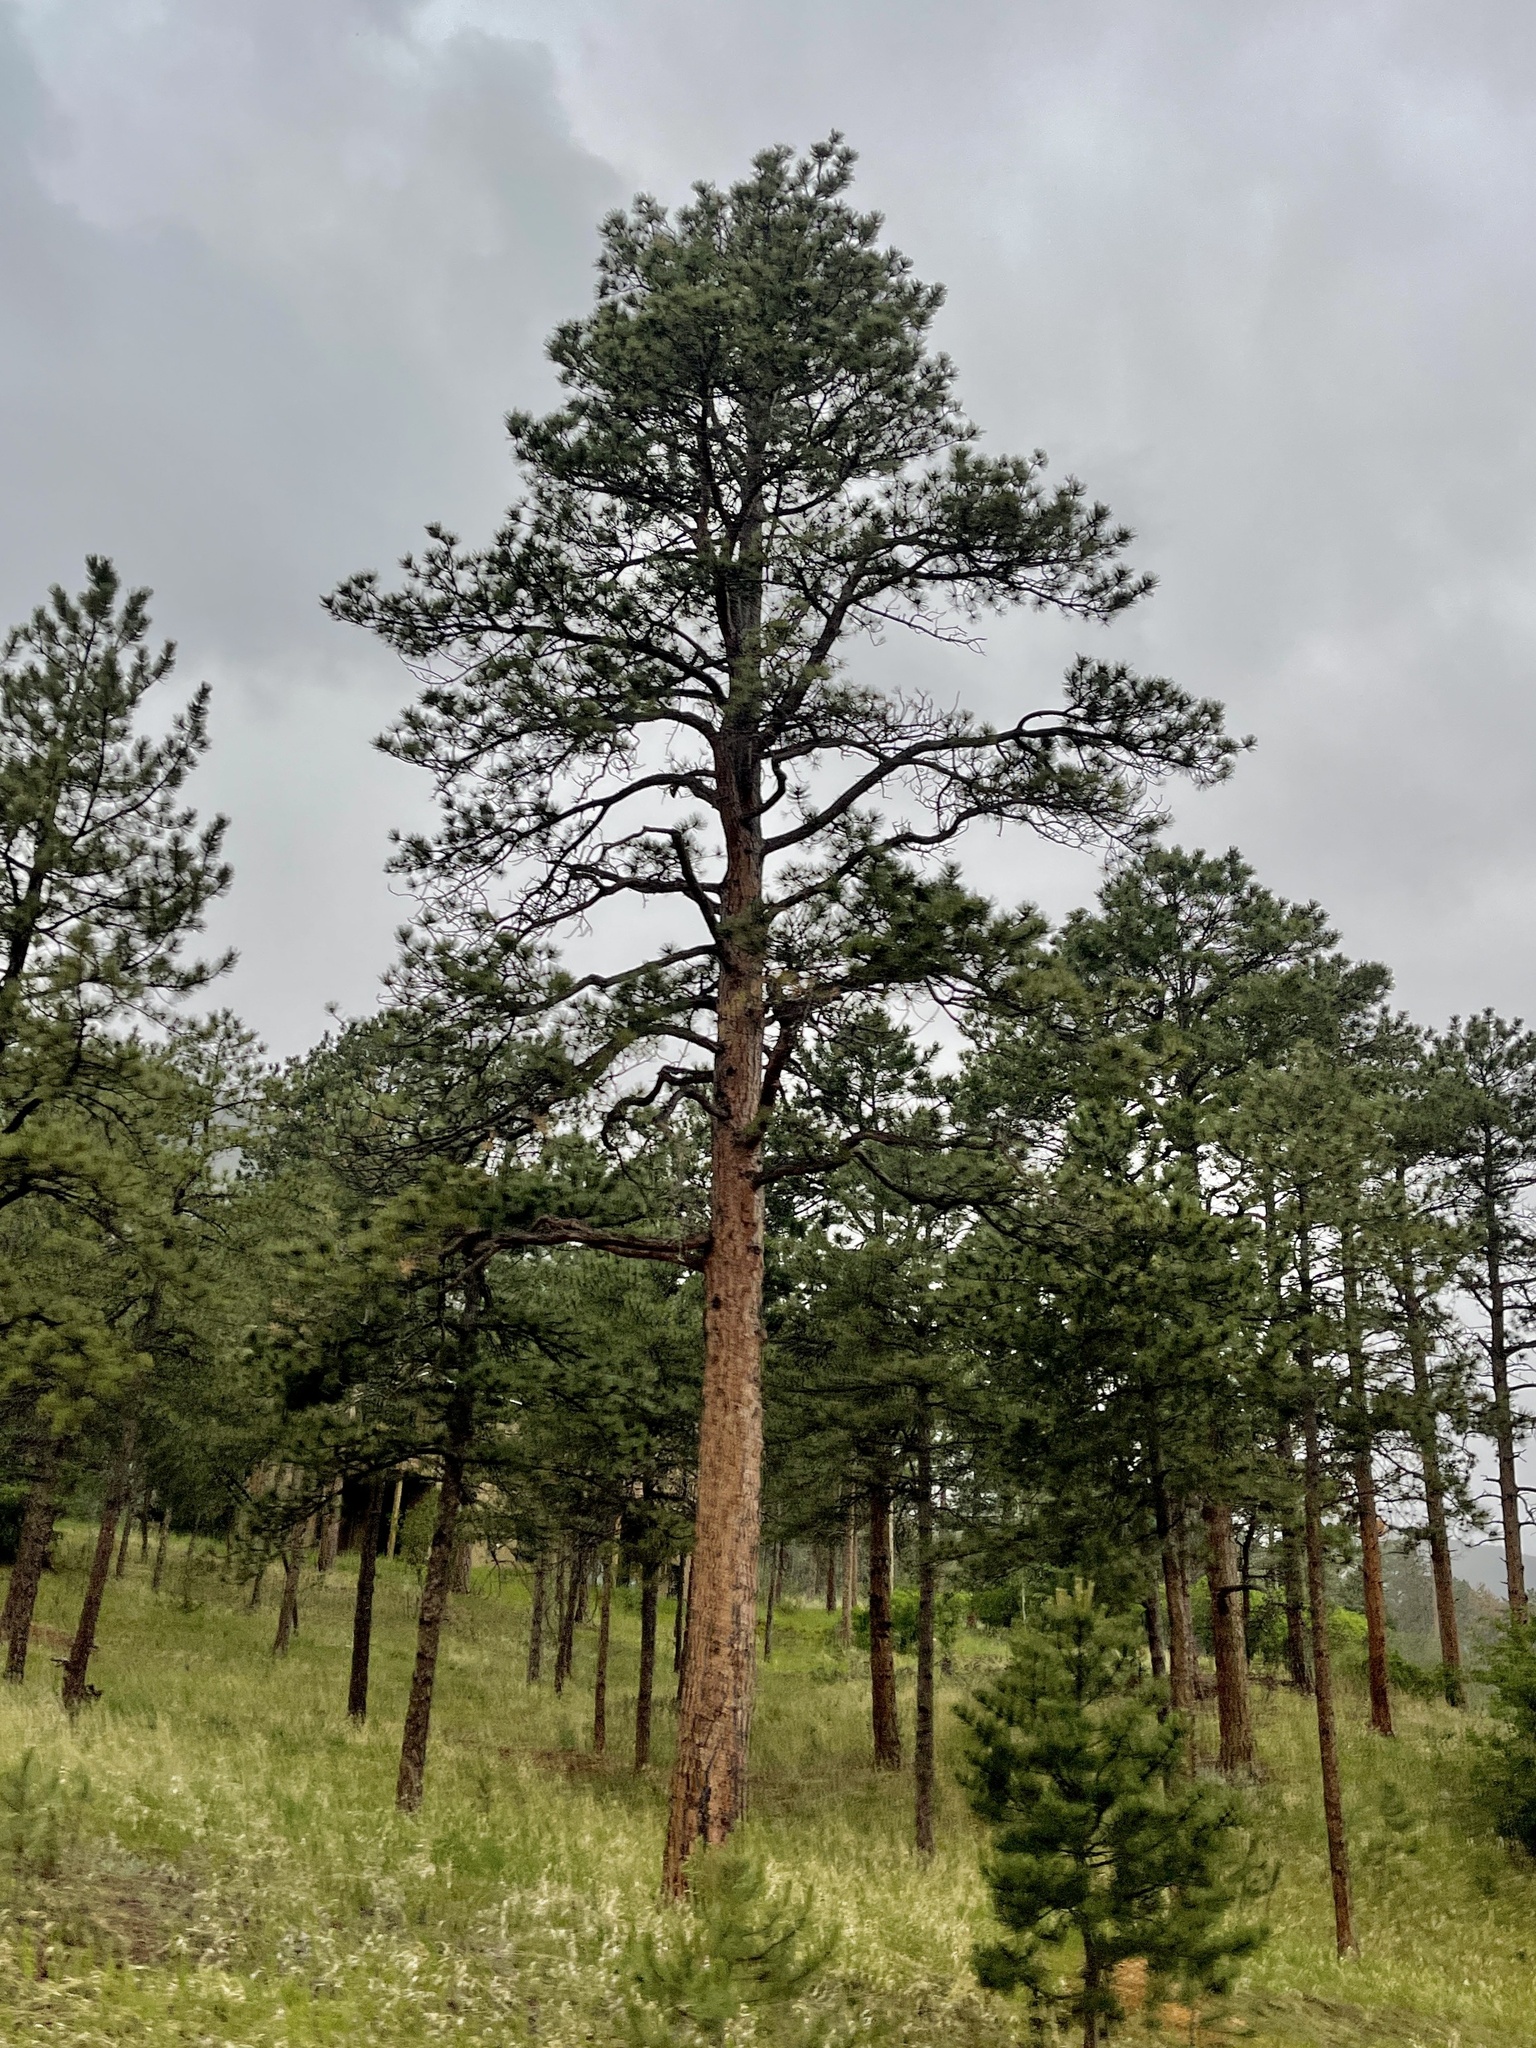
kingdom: Plantae
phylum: Tracheophyta
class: Pinopsida
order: Pinales
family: Pinaceae
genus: Pinus
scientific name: Pinus ponderosa
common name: Western yellow-pine
